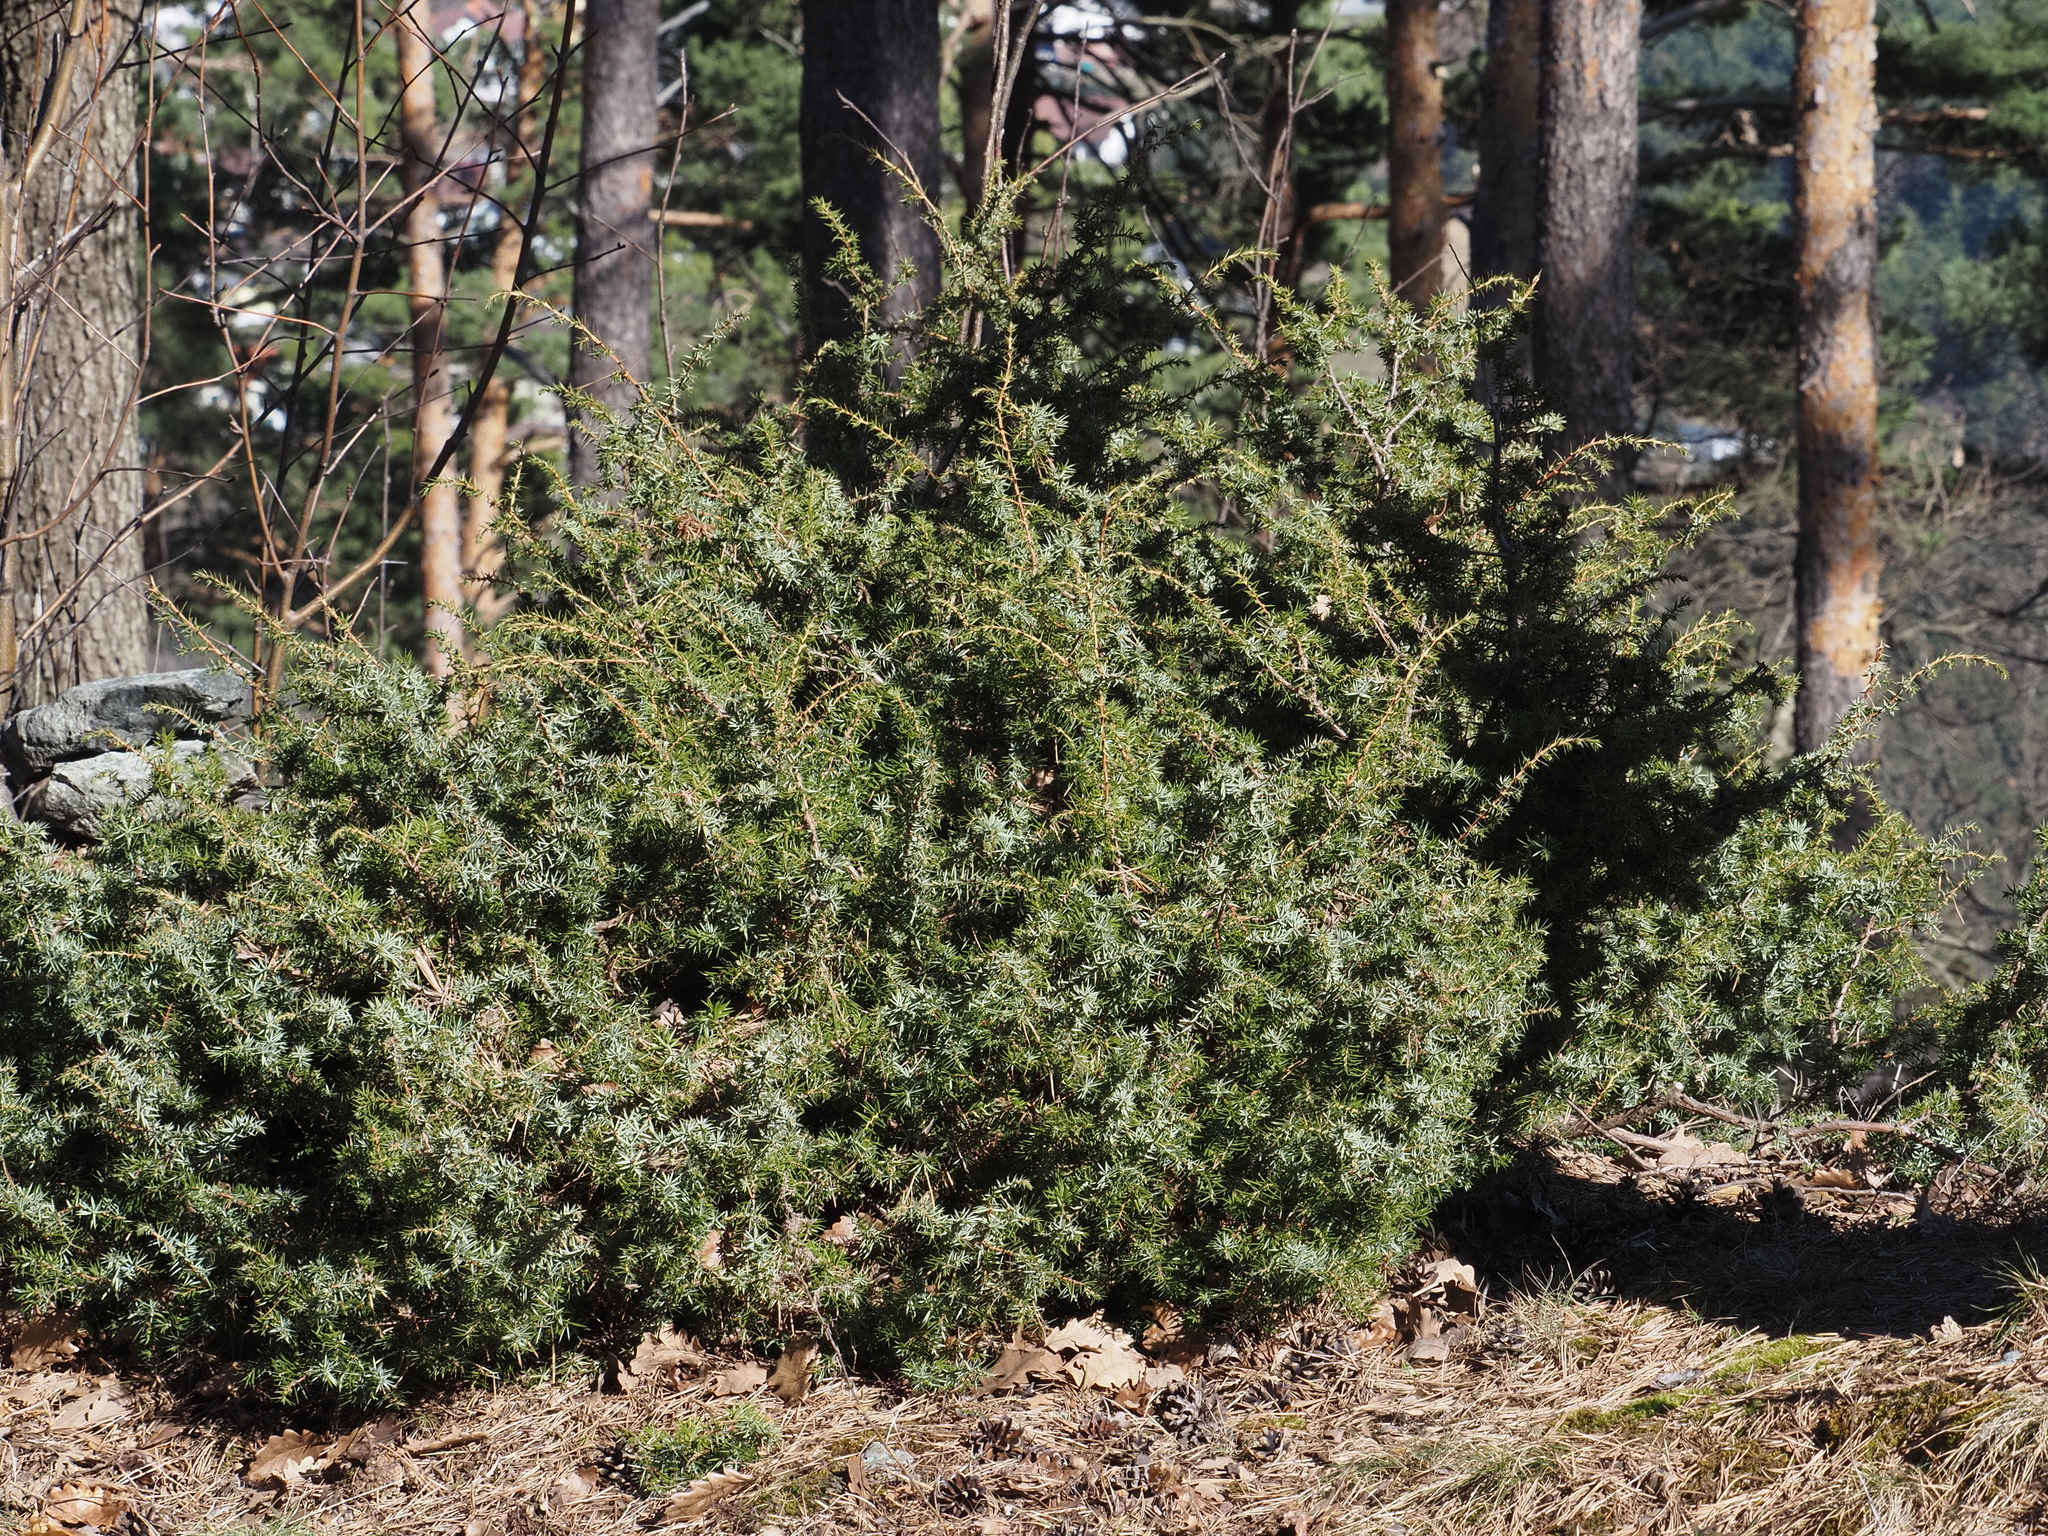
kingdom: Plantae
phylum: Tracheophyta
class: Pinopsida
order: Pinales
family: Cupressaceae
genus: Juniperus
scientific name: Juniperus communis
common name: Common juniper
